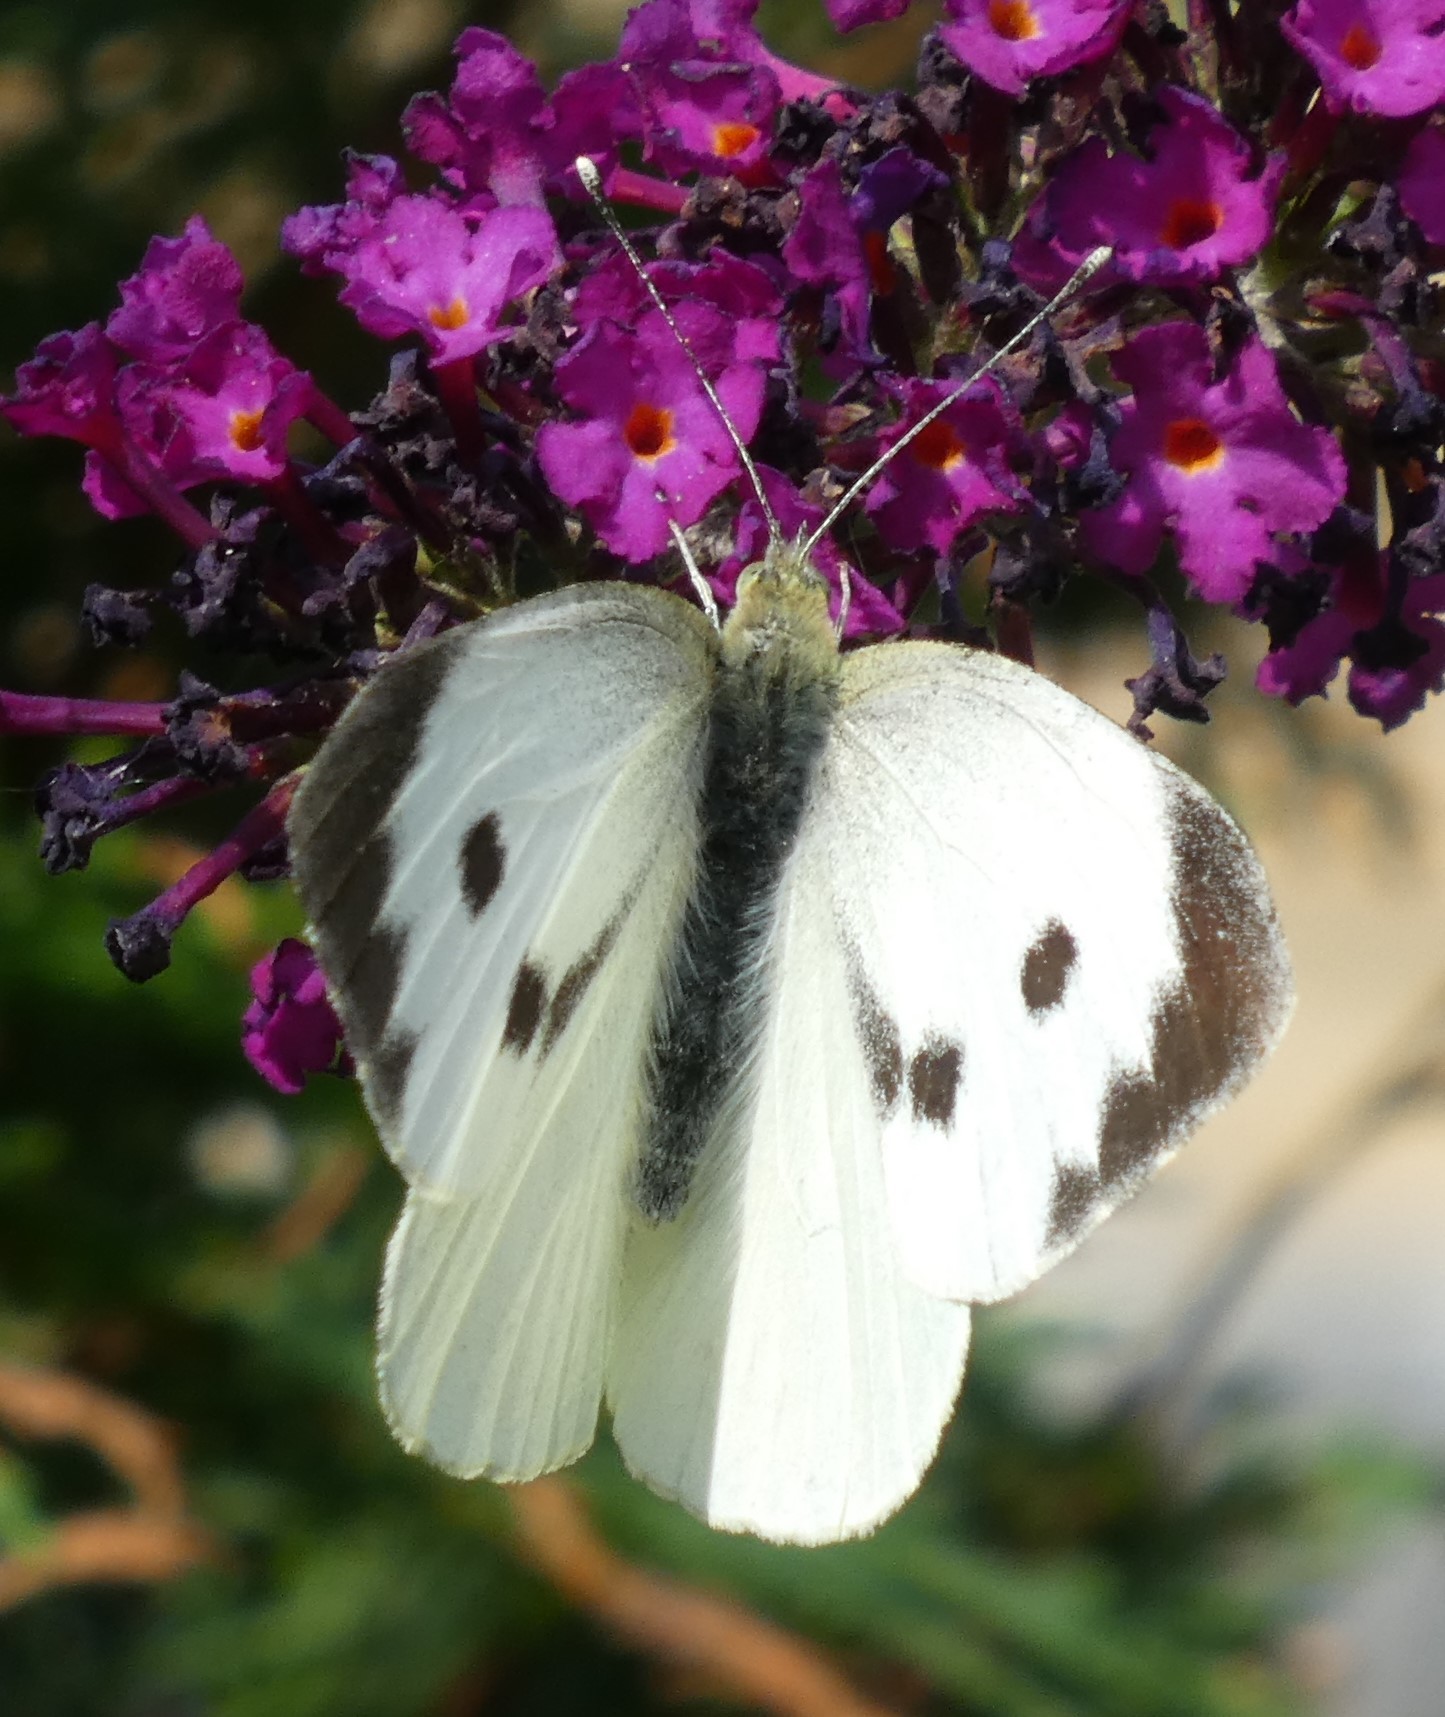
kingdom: Animalia
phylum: Arthropoda
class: Insecta
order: Lepidoptera
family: Pieridae
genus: Pieris
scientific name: Pieris brassicae
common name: Large white
